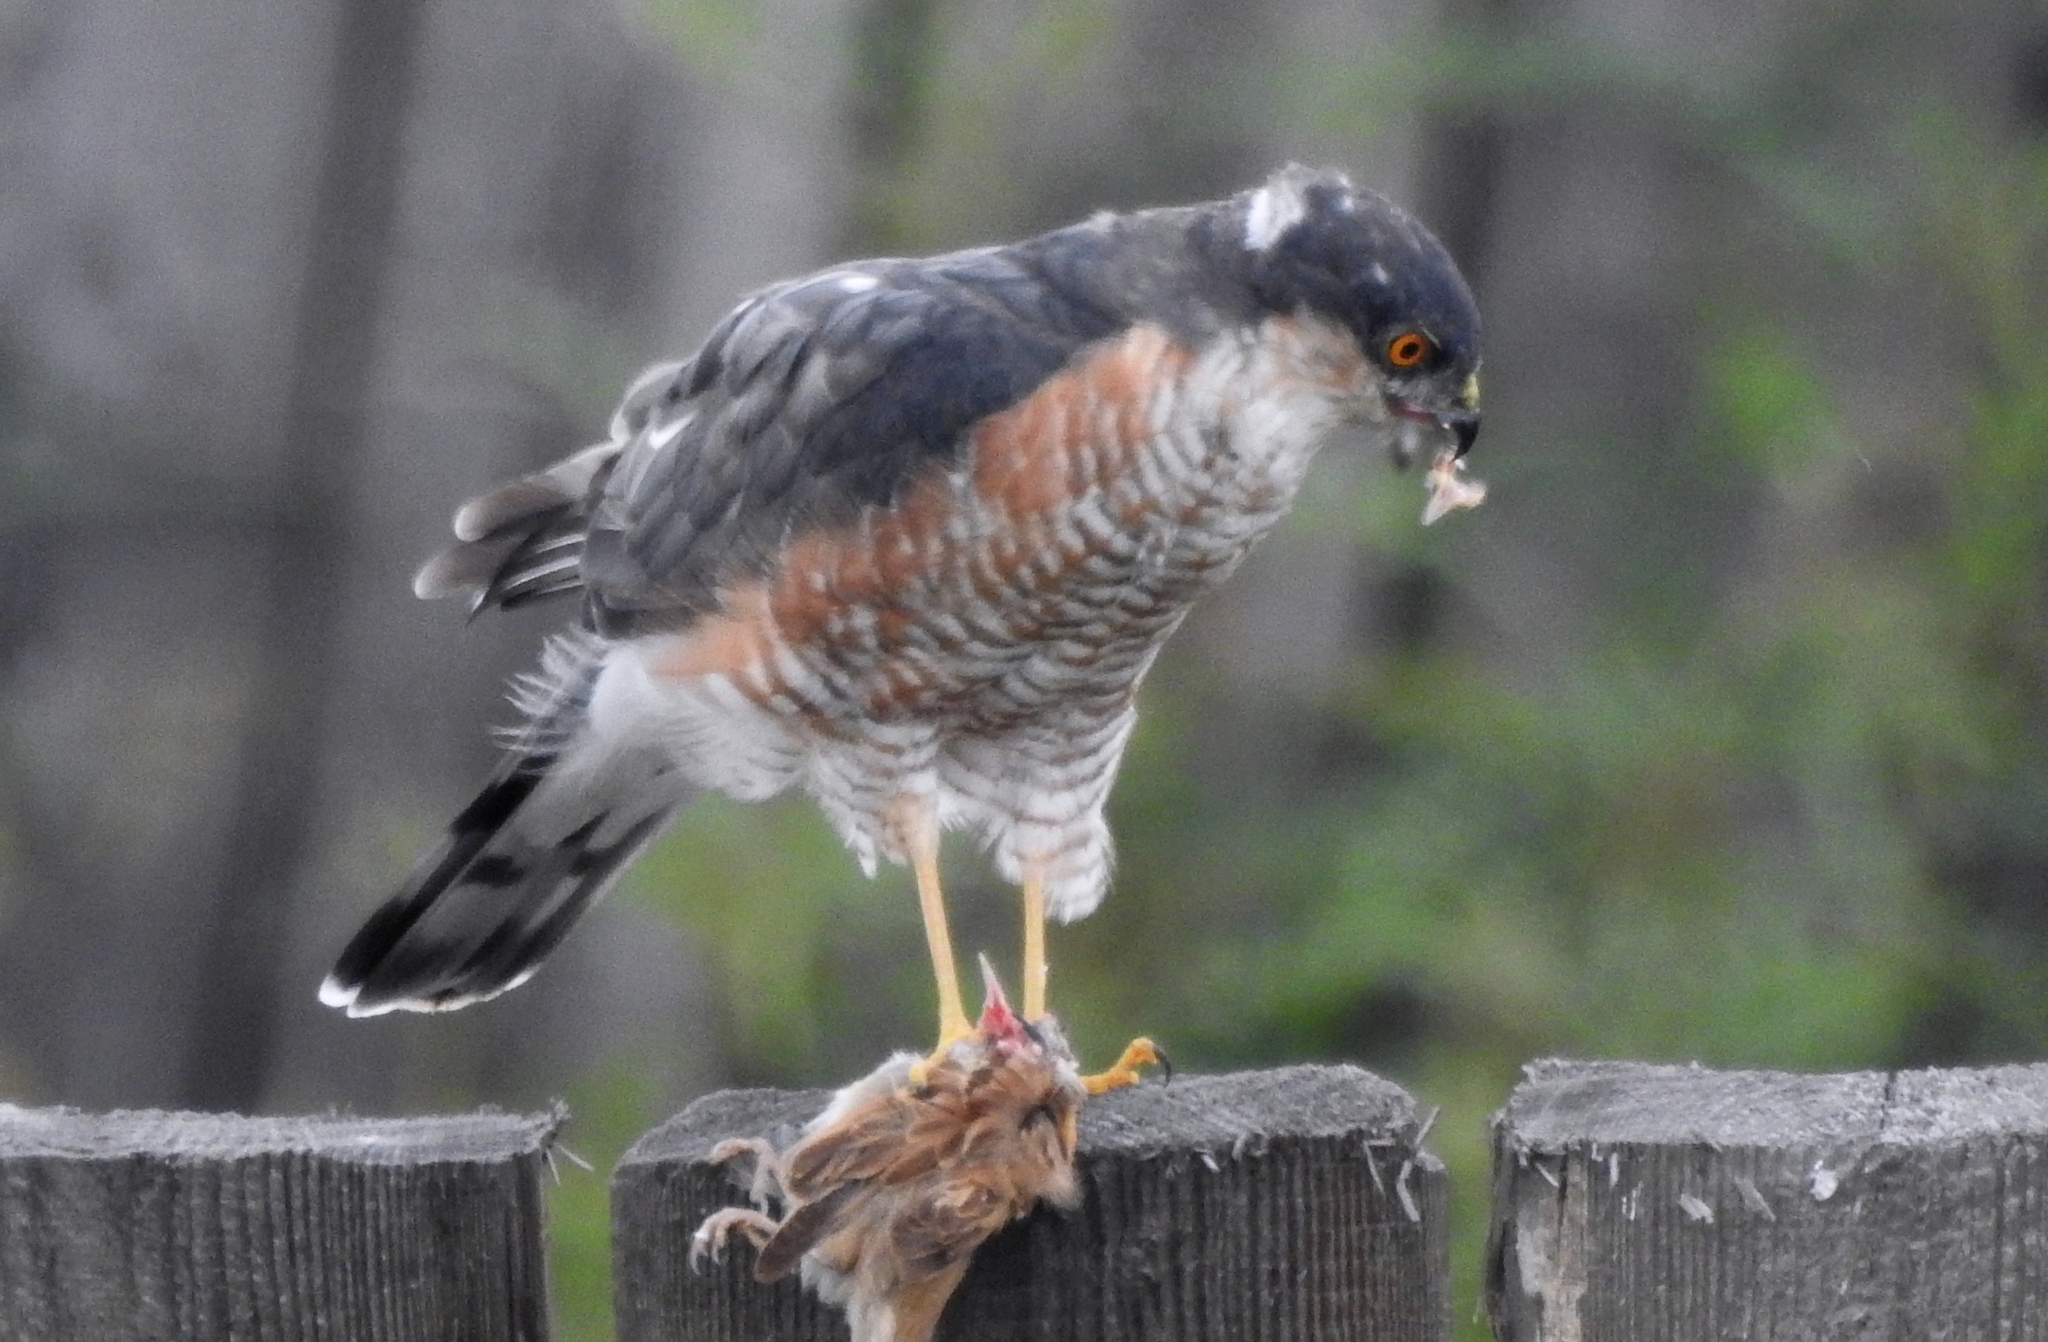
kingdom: Animalia
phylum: Chordata
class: Aves
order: Accipitriformes
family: Accipitridae
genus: Accipiter
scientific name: Accipiter nisus
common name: Eurasian sparrowhawk
